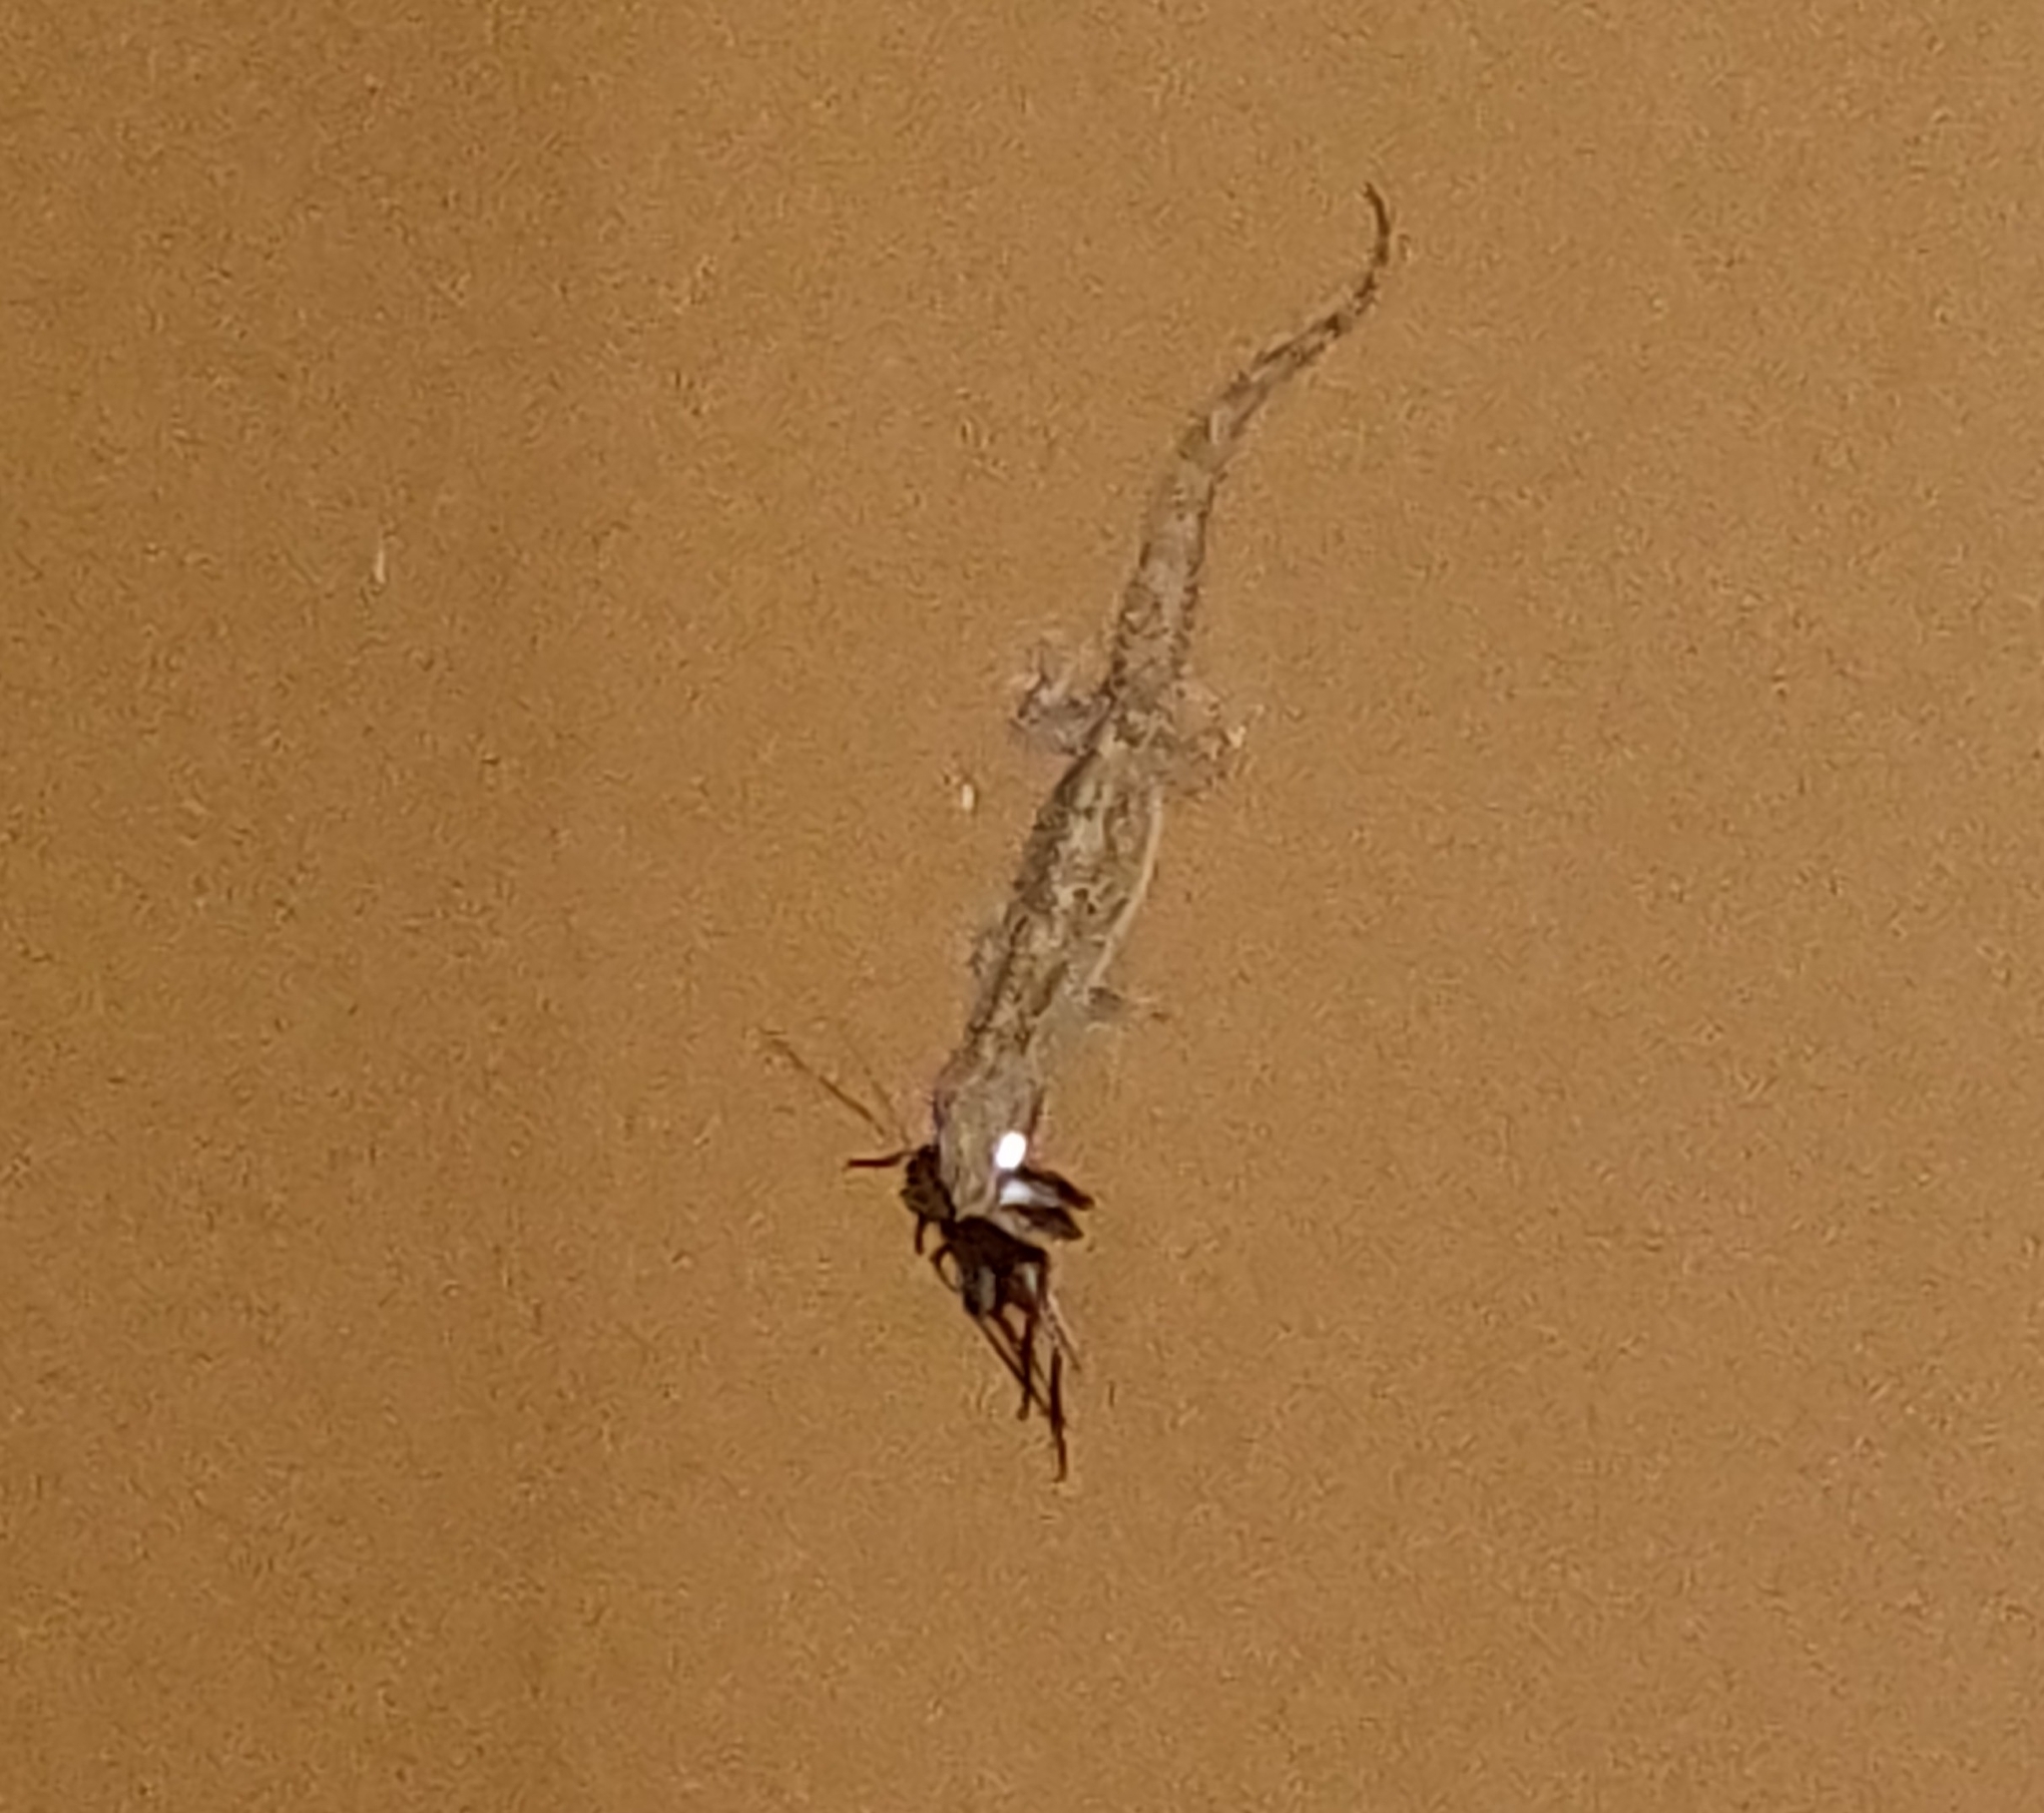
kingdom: Animalia
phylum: Chordata
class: Squamata
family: Gekkonidae
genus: Hemidactylus
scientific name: Hemidactylus frenatus
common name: Common house gecko
